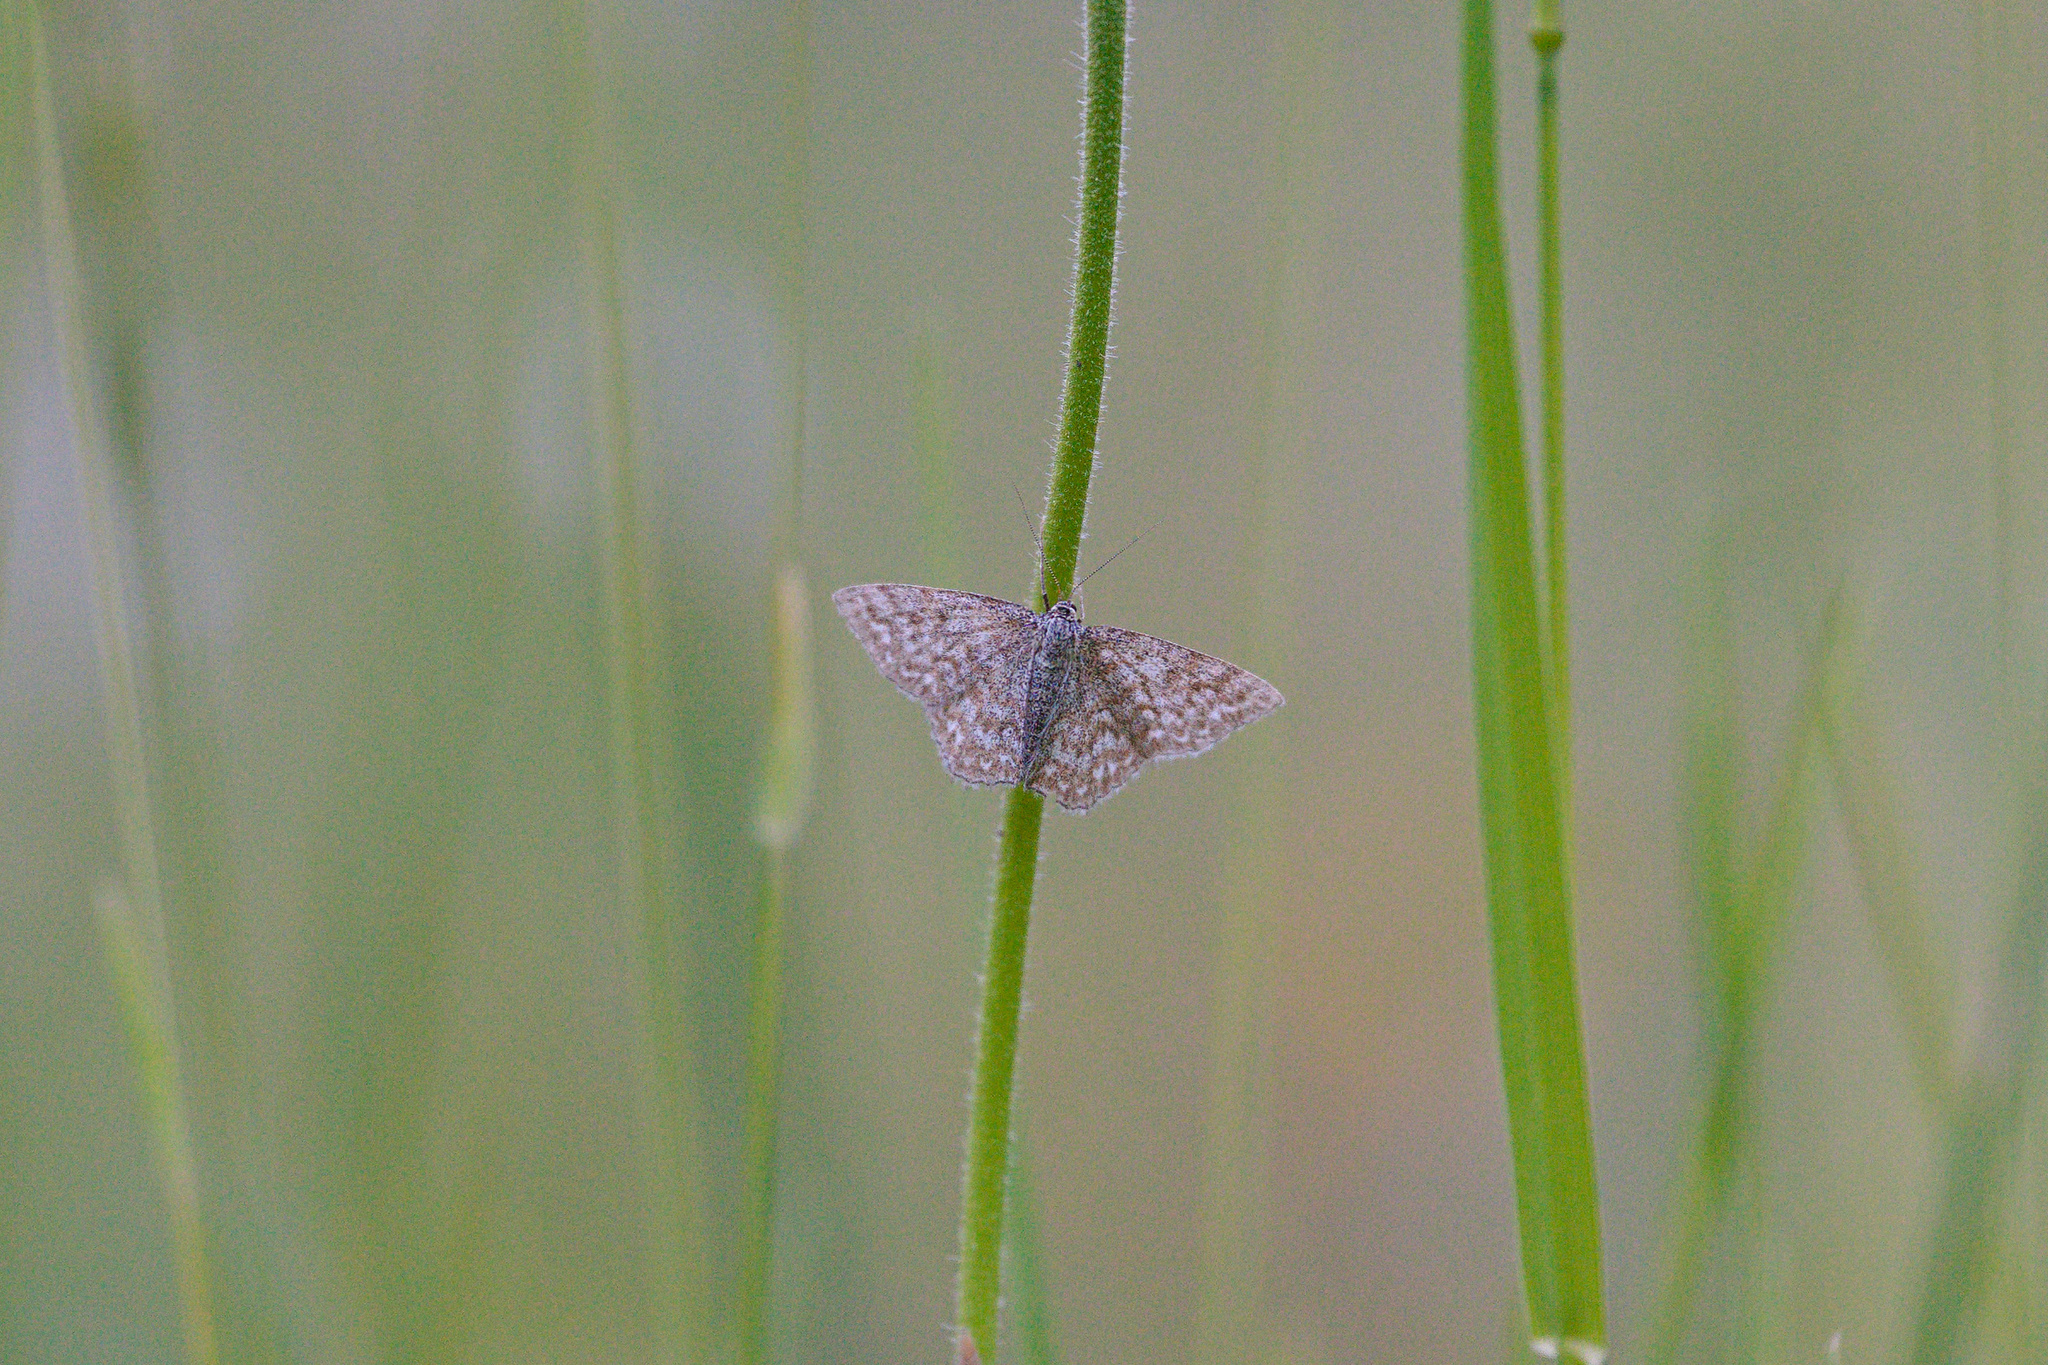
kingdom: Animalia
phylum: Arthropoda
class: Insecta
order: Lepidoptera
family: Geometridae
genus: Scopula
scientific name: Scopula immorata
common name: Lewes wave
